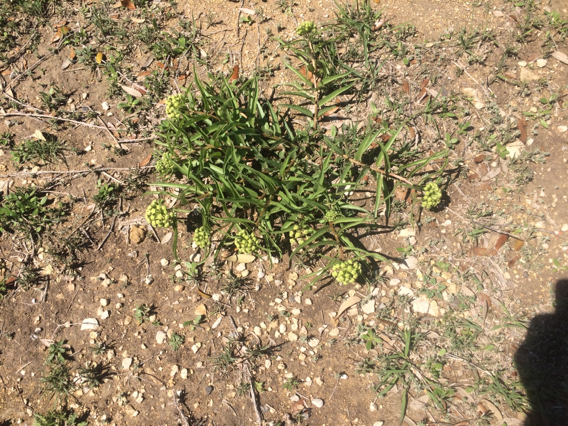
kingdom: Plantae
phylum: Tracheophyta
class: Magnoliopsida
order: Gentianales
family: Apocynaceae
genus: Asclepias
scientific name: Asclepias asperula
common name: Antelope horns
